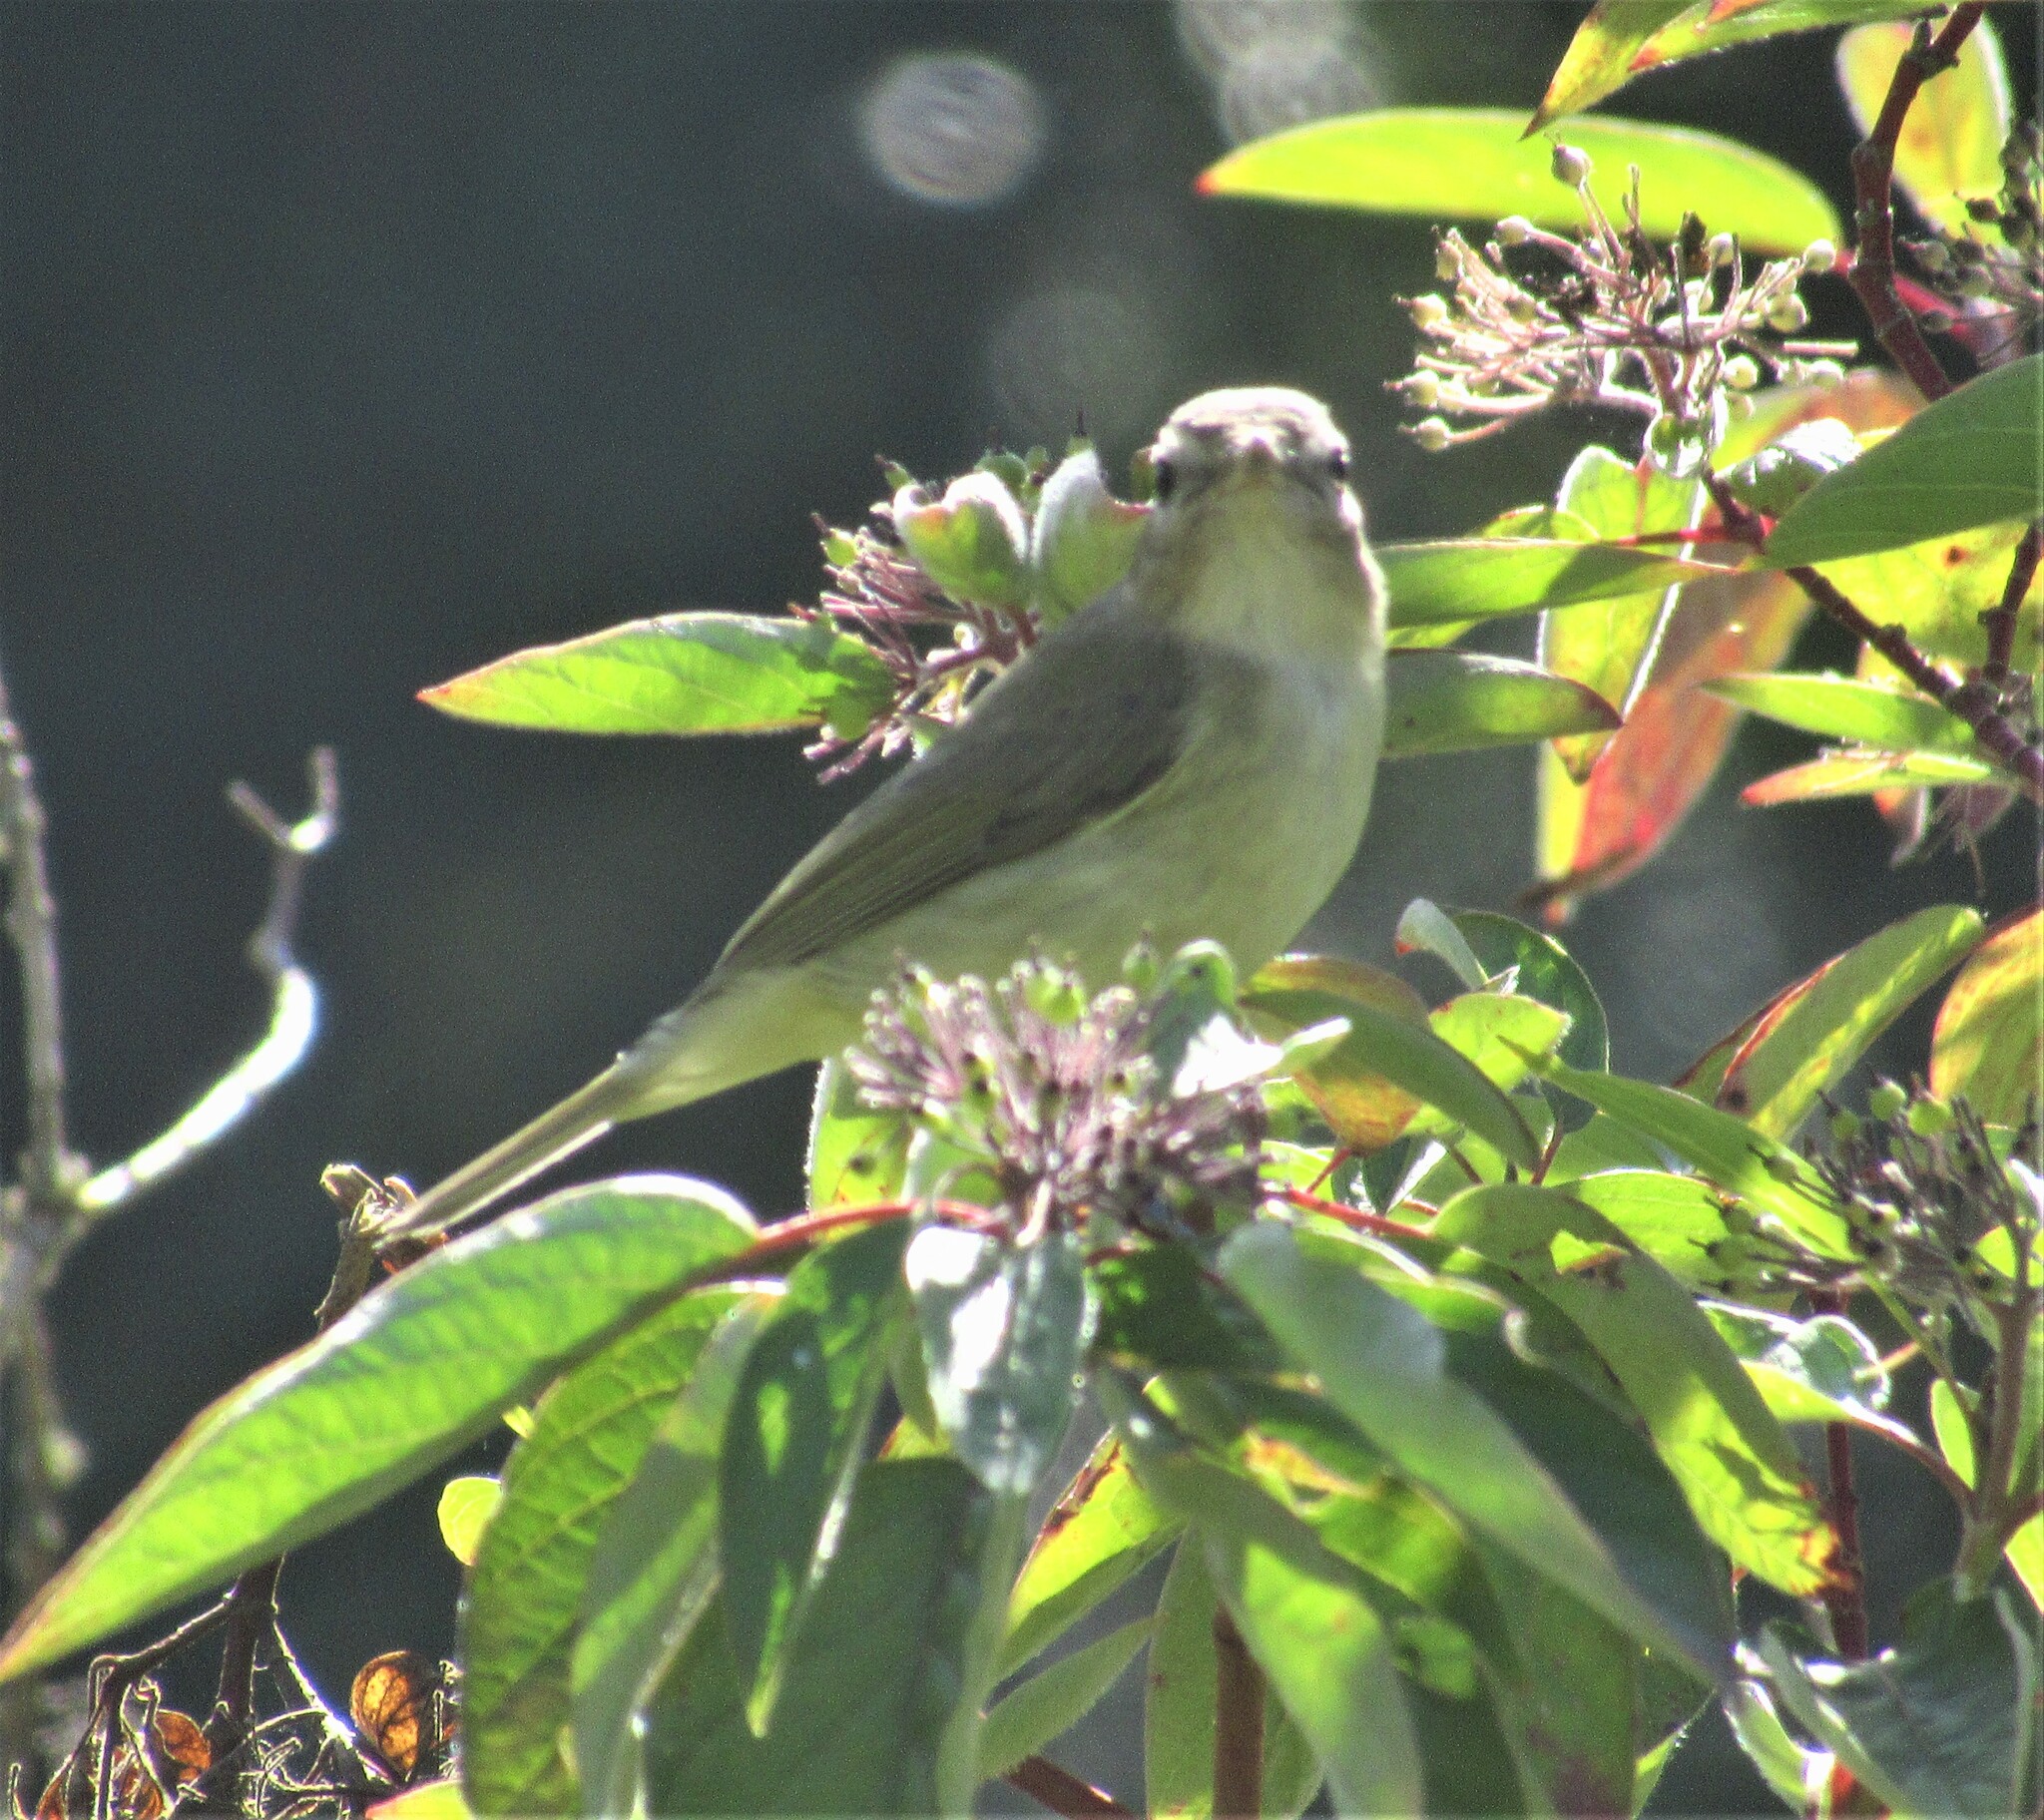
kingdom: Animalia
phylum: Chordata
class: Aves
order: Passeriformes
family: Vireonidae
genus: Vireo
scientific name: Vireo gilvus
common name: Warbling vireo
